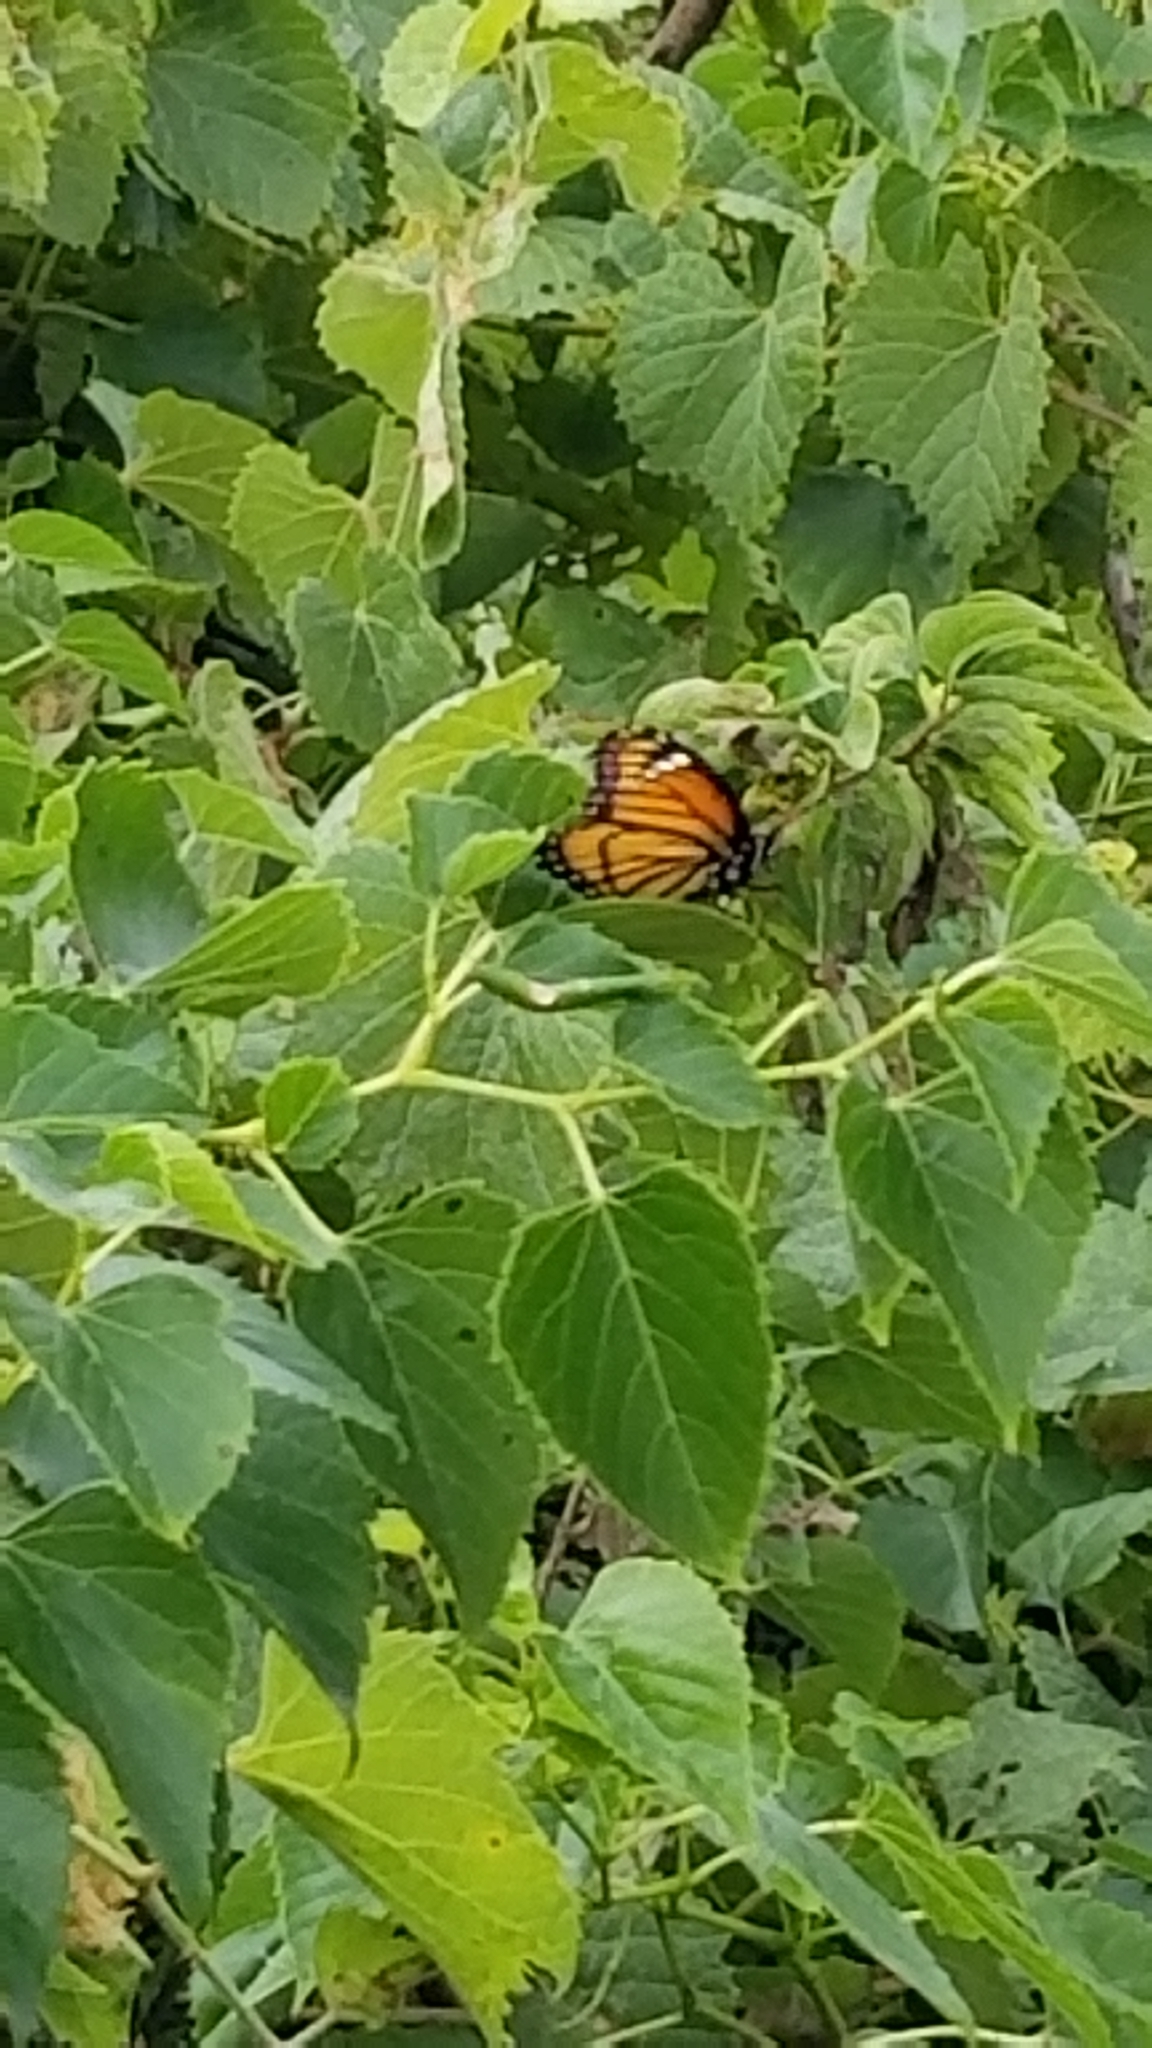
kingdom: Animalia
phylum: Arthropoda
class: Insecta
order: Lepidoptera
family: Nymphalidae
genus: Limenitis
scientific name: Limenitis archippus
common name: Viceroy
